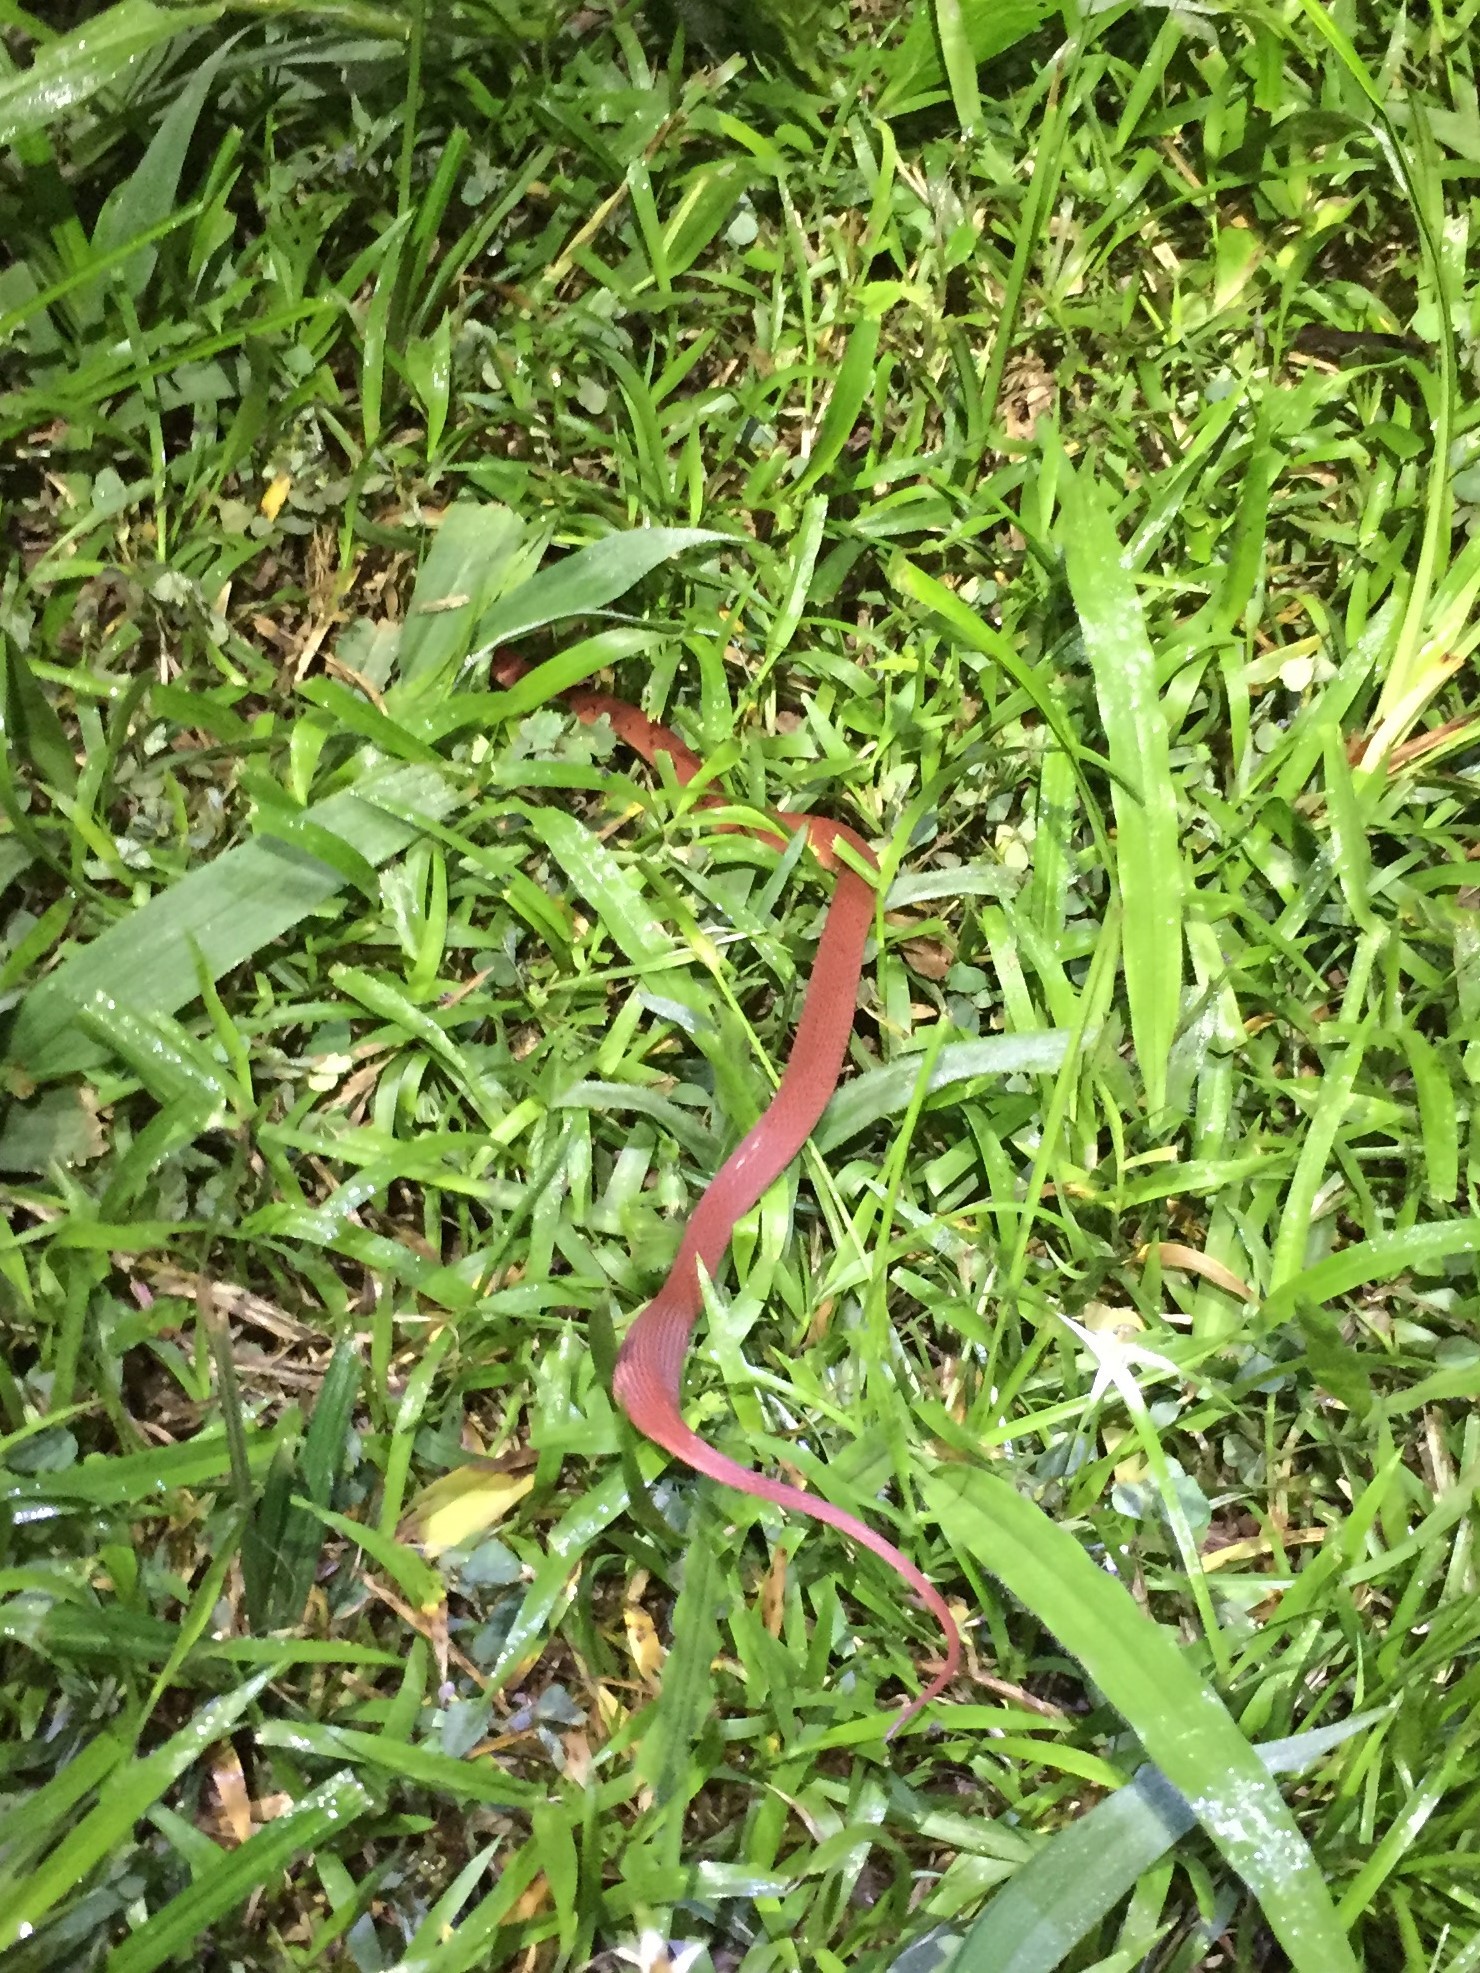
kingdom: Animalia
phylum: Chordata
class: Squamata
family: Colubridae
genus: Ninia
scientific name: Ninia sebae
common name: Redback coffee snake
